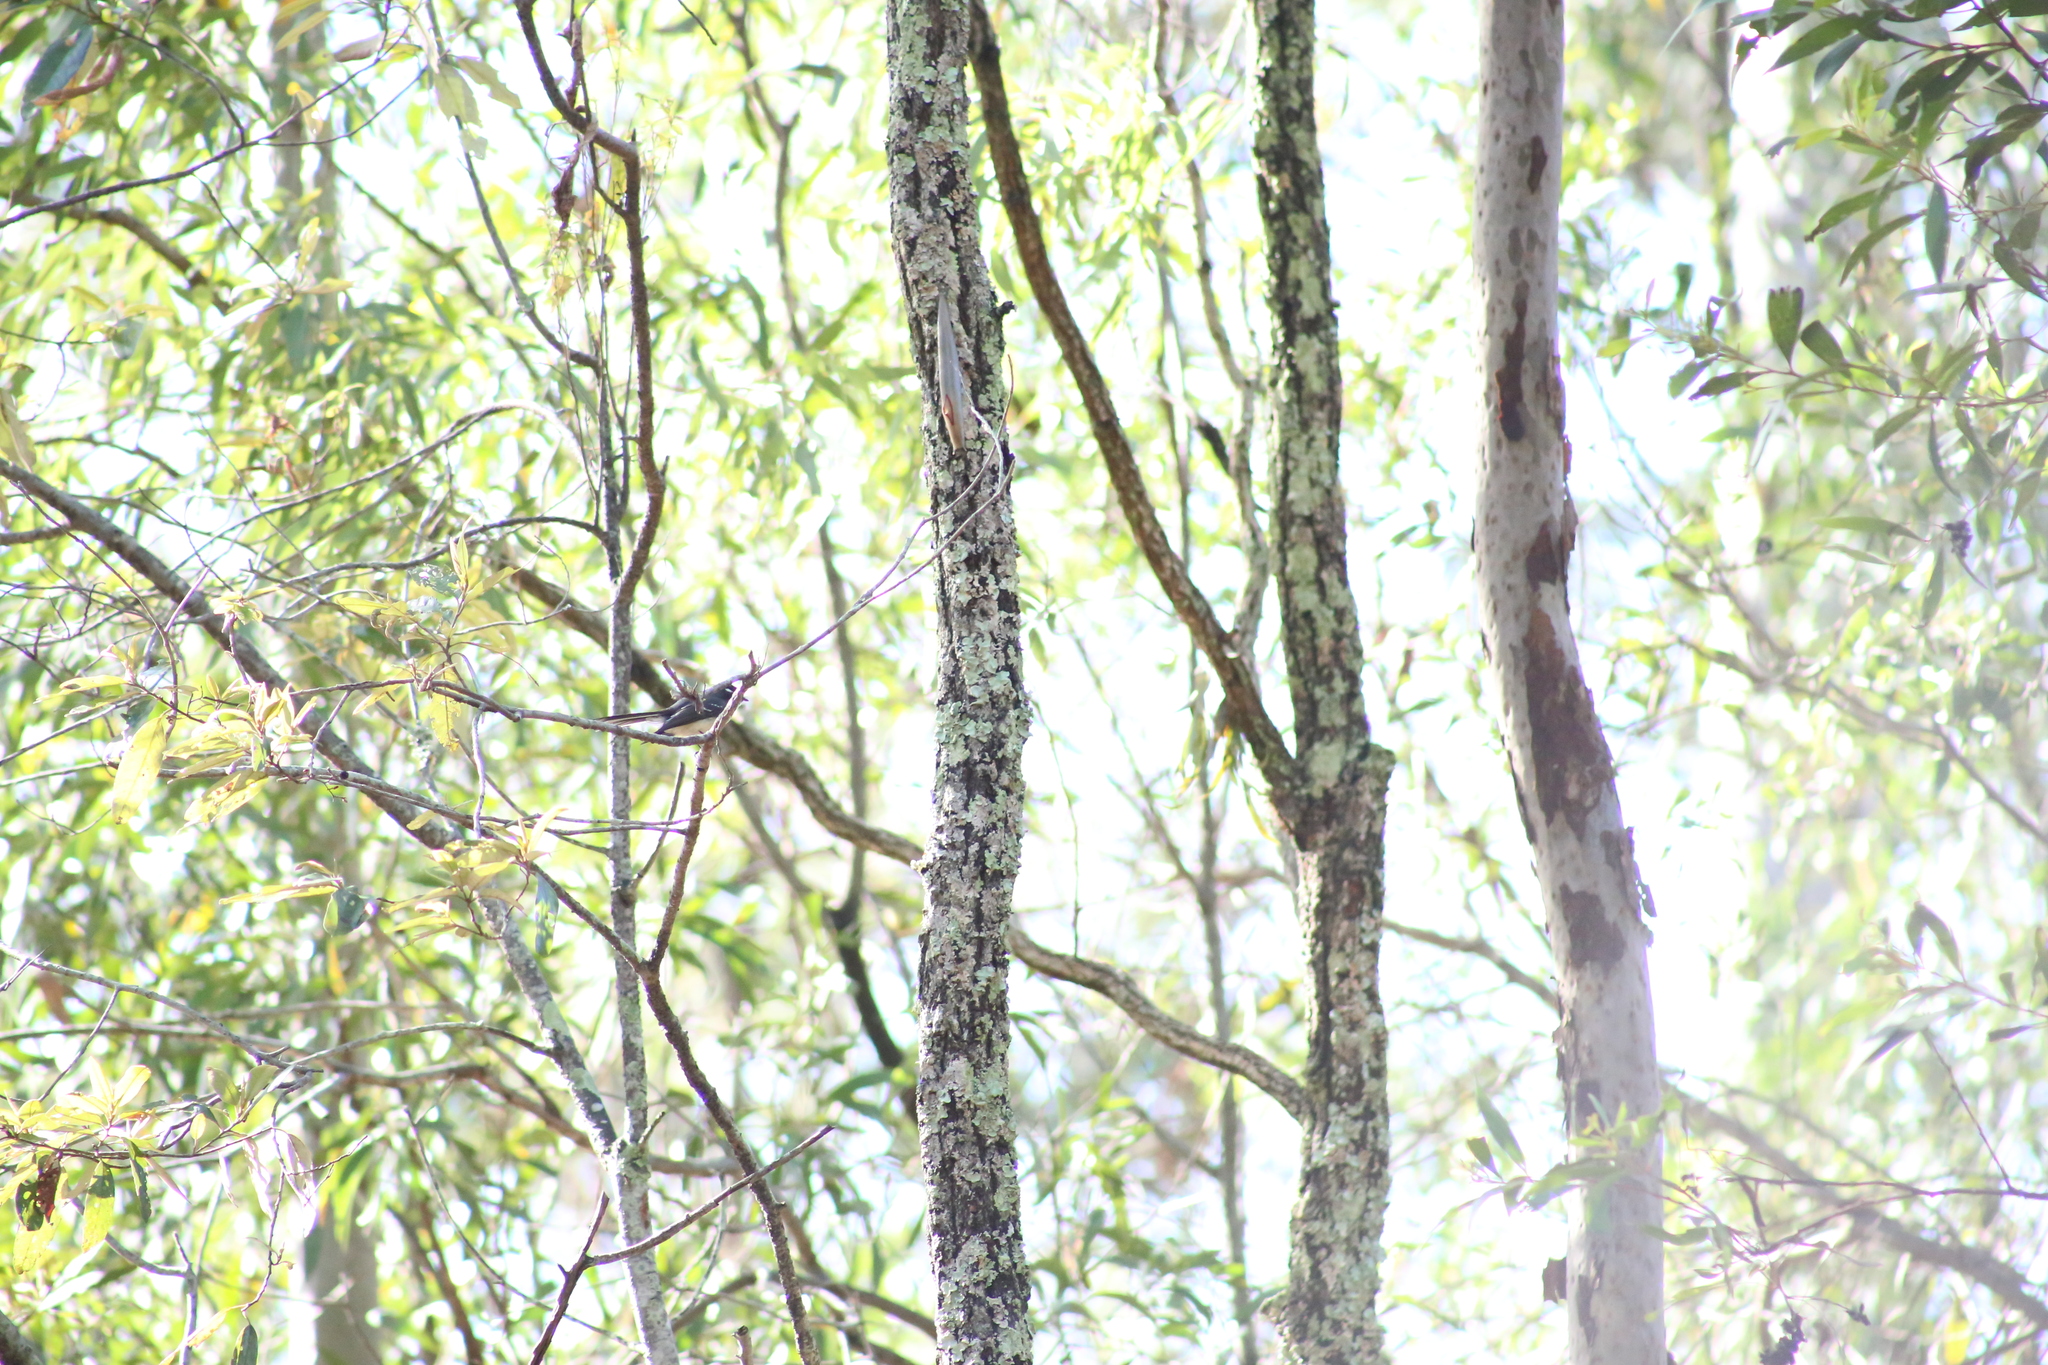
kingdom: Animalia
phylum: Chordata
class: Aves
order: Passeriformes
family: Rhipiduridae
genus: Rhipidura
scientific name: Rhipidura albiscapa
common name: Grey fantail
